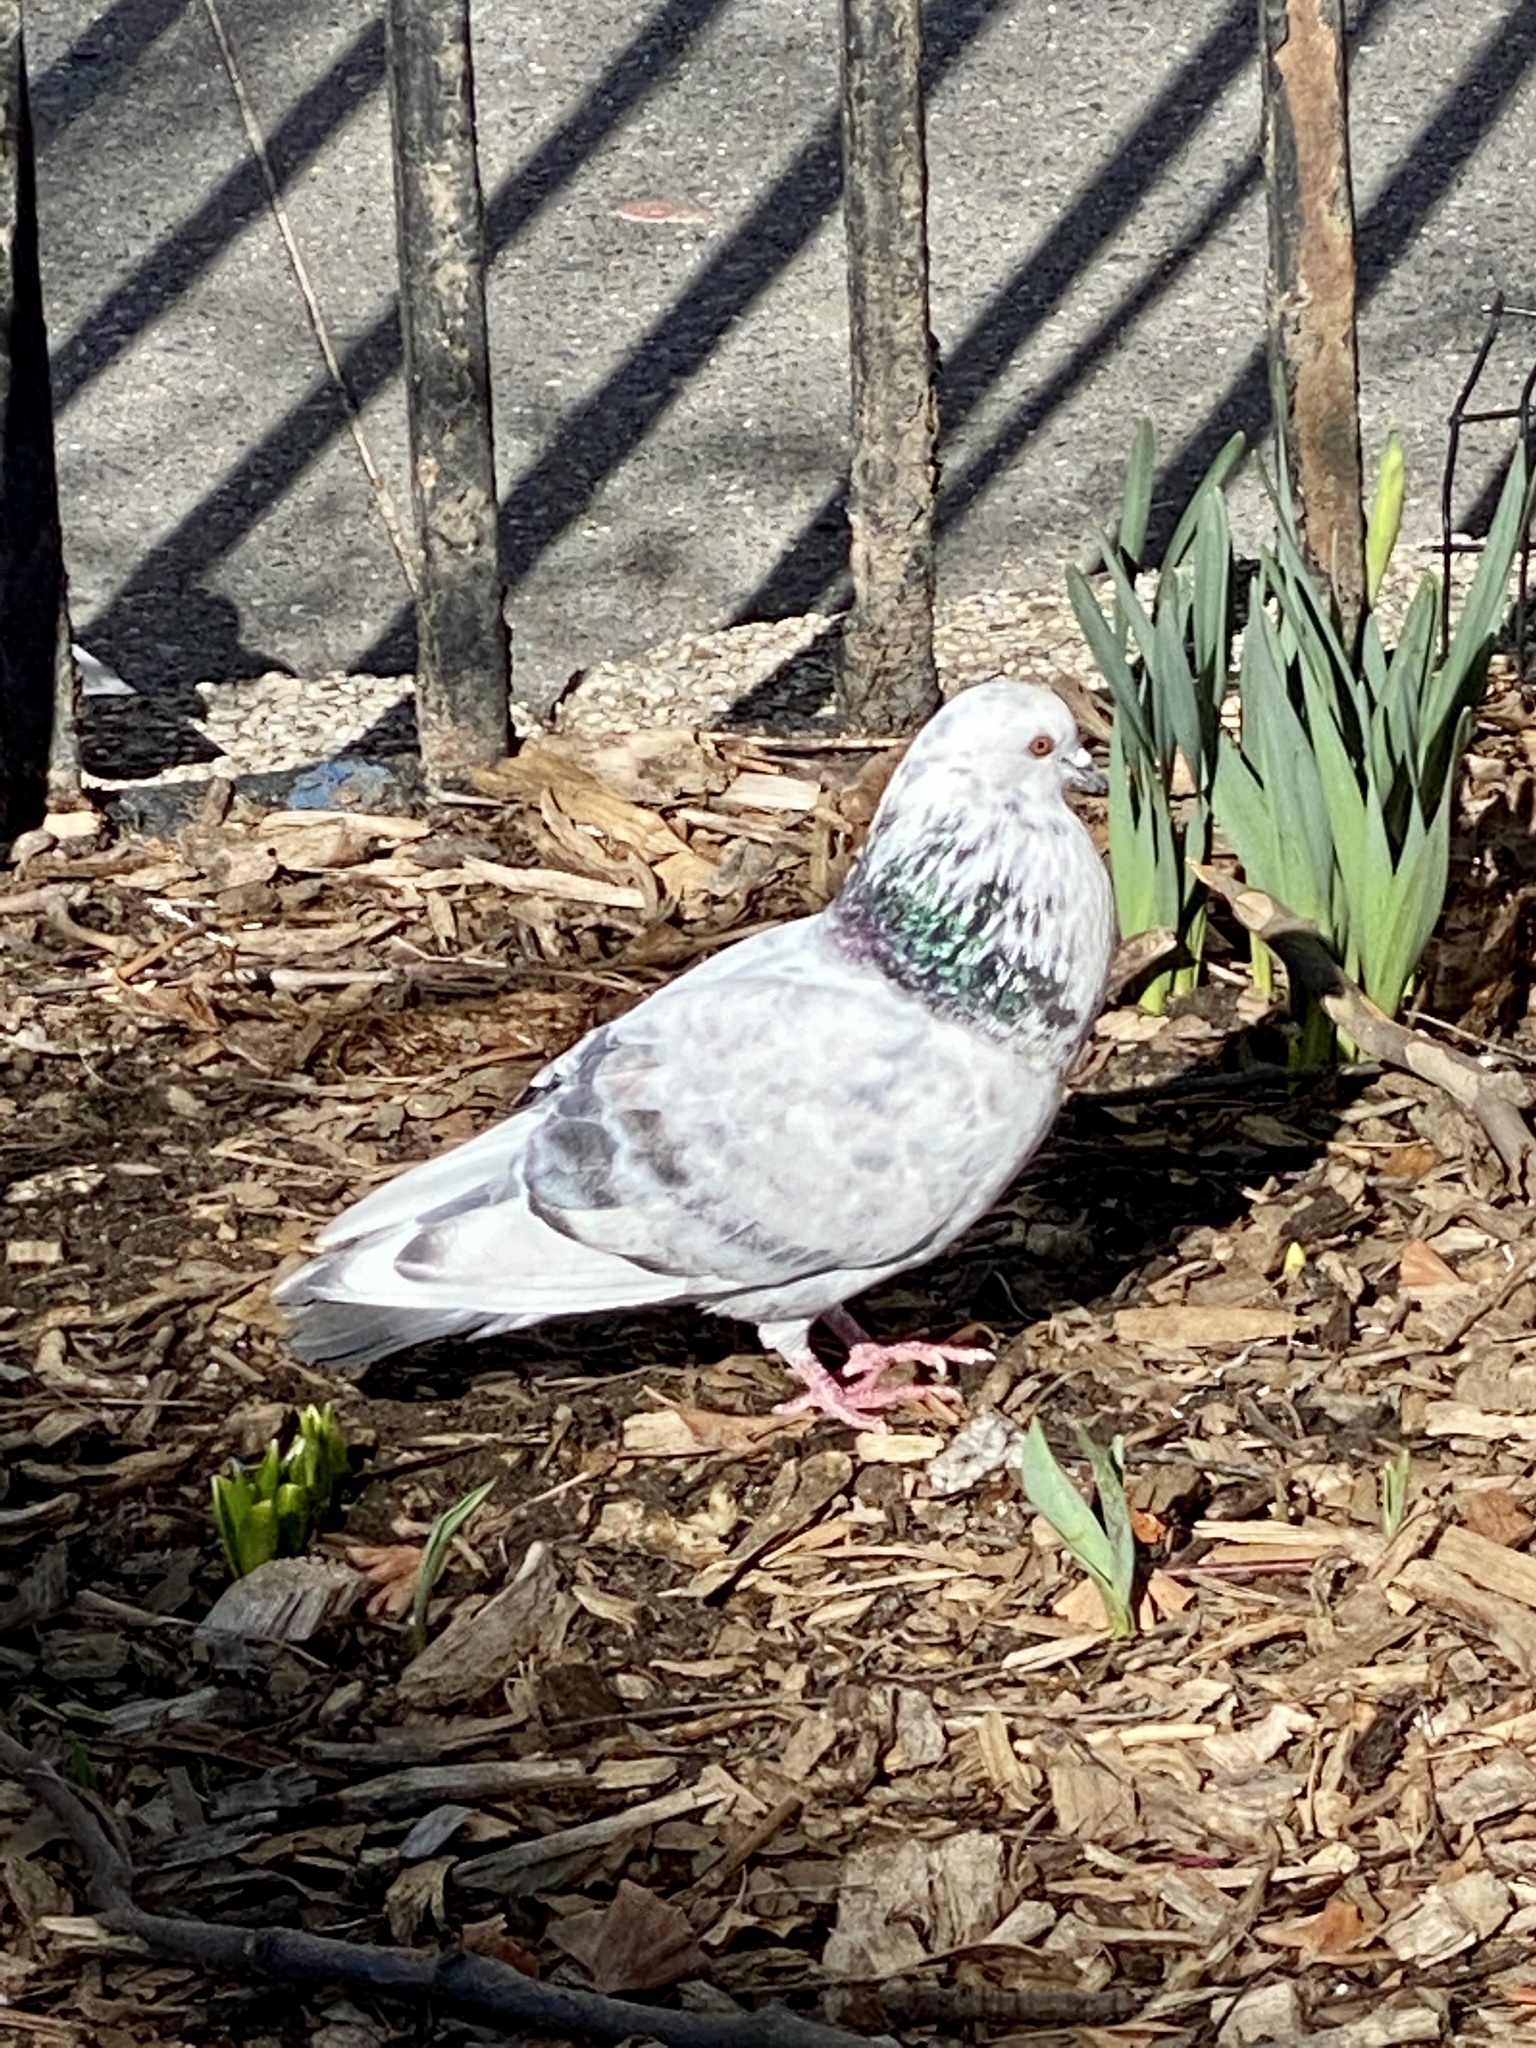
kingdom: Animalia
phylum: Chordata
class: Aves
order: Columbiformes
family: Columbidae
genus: Columba
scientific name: Columba livia
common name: Rock pigeon
